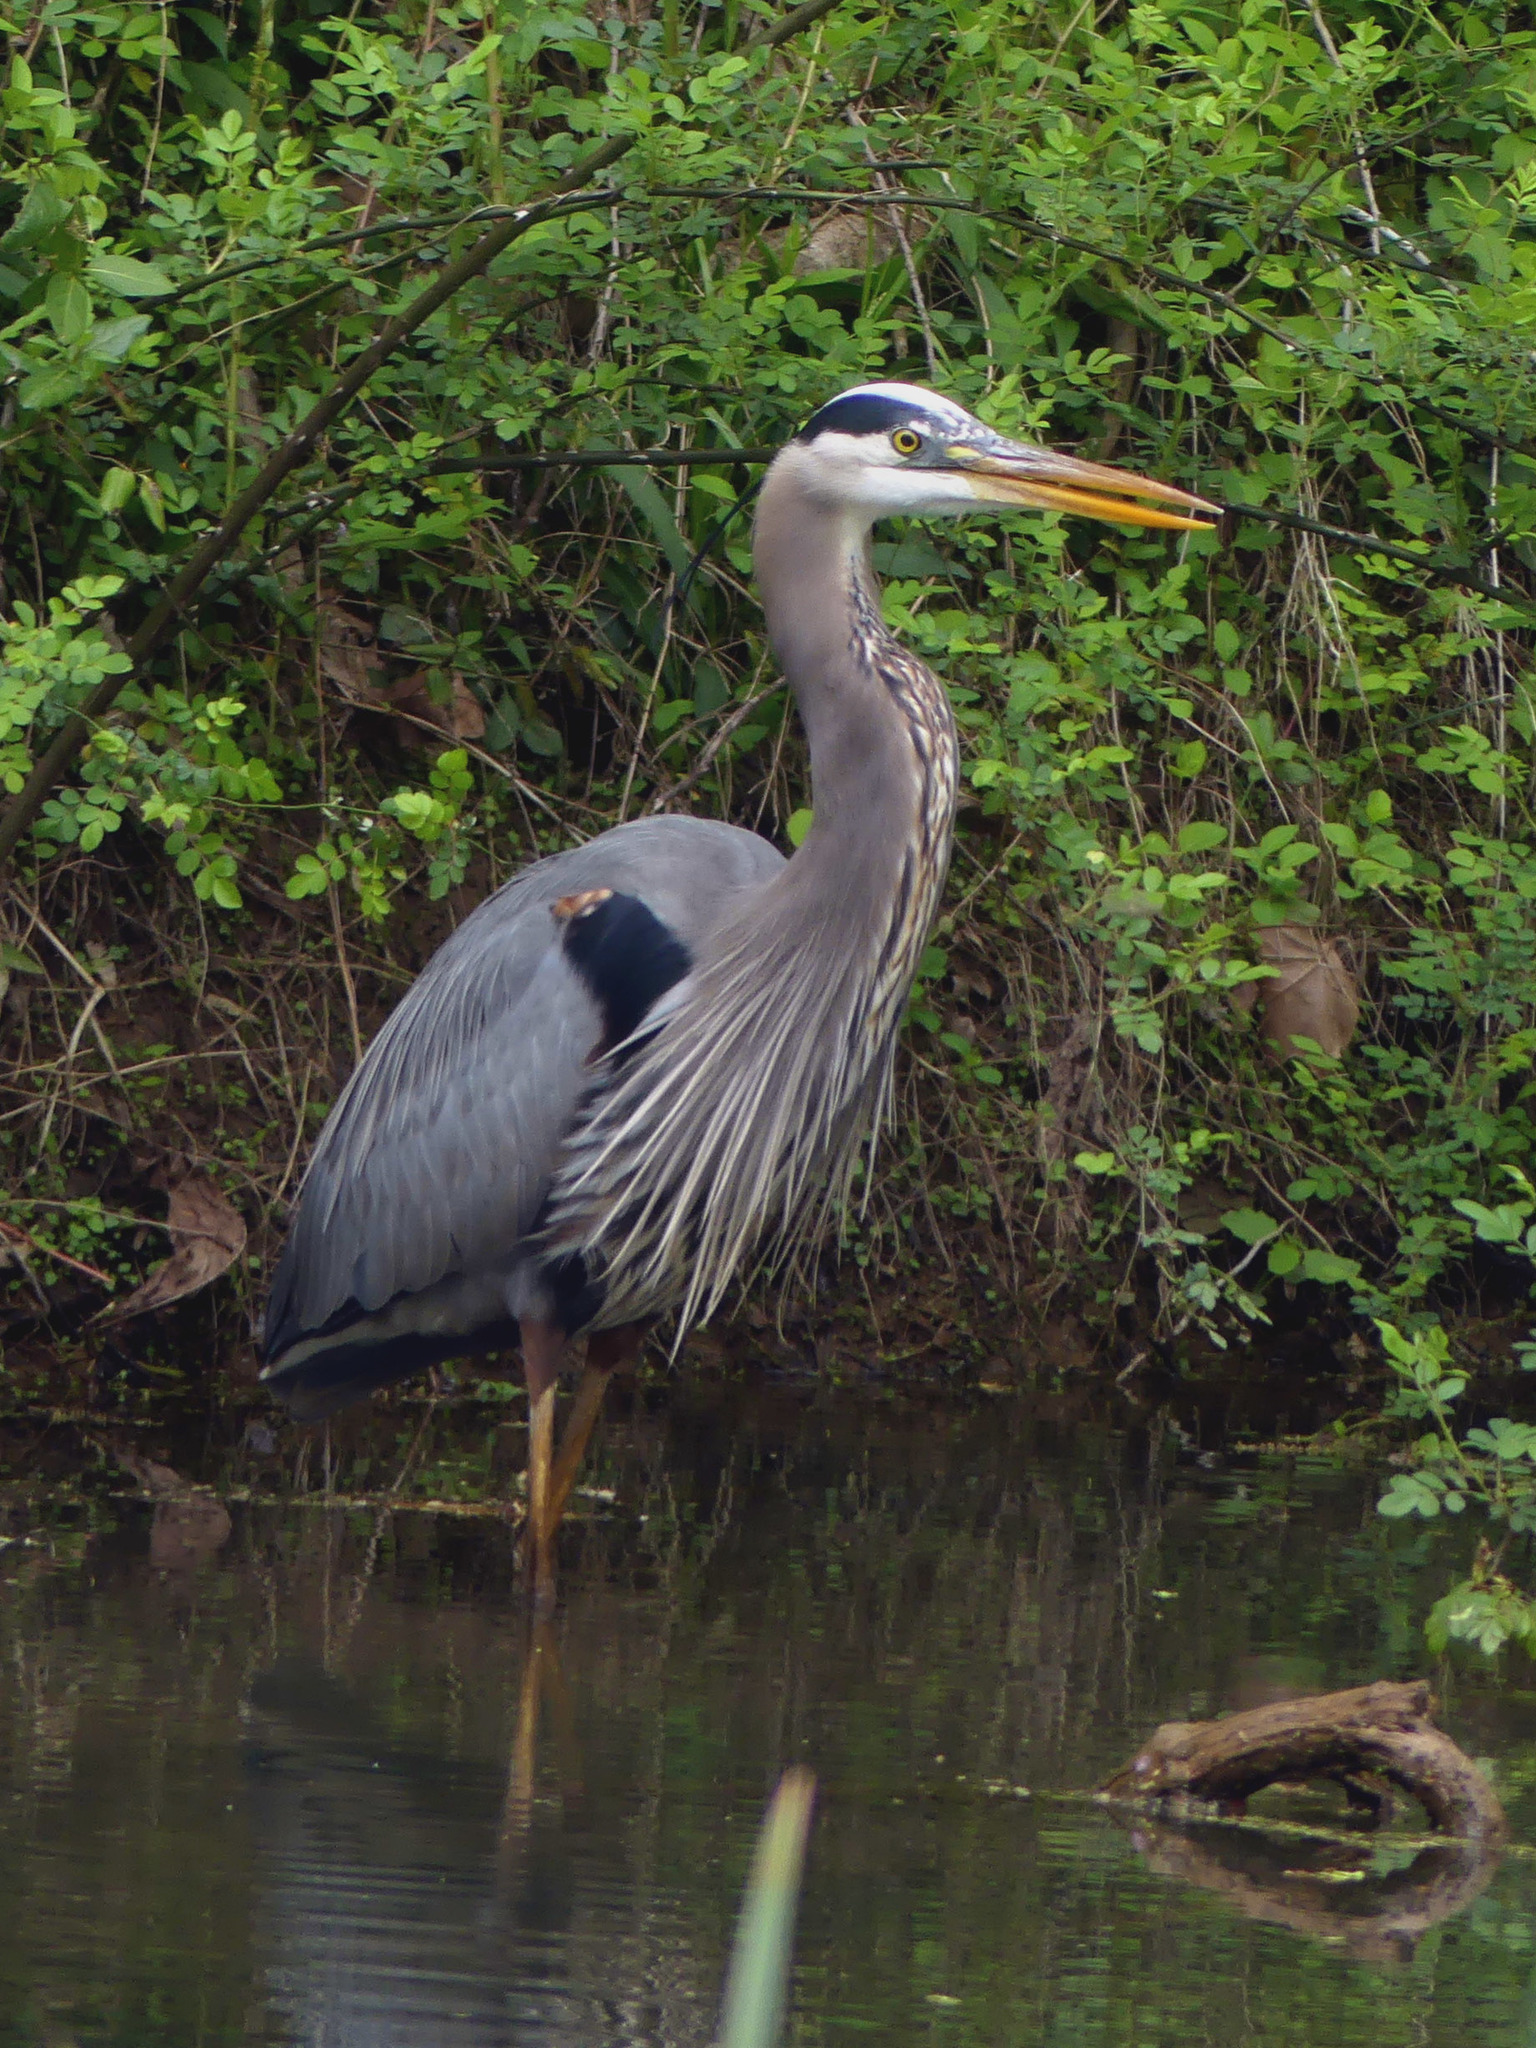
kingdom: Animalia
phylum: Chordata
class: Aves
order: Pelecaniformes
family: Ardeidae
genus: Ardea
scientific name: Ardea herodias
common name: Great blue heron
